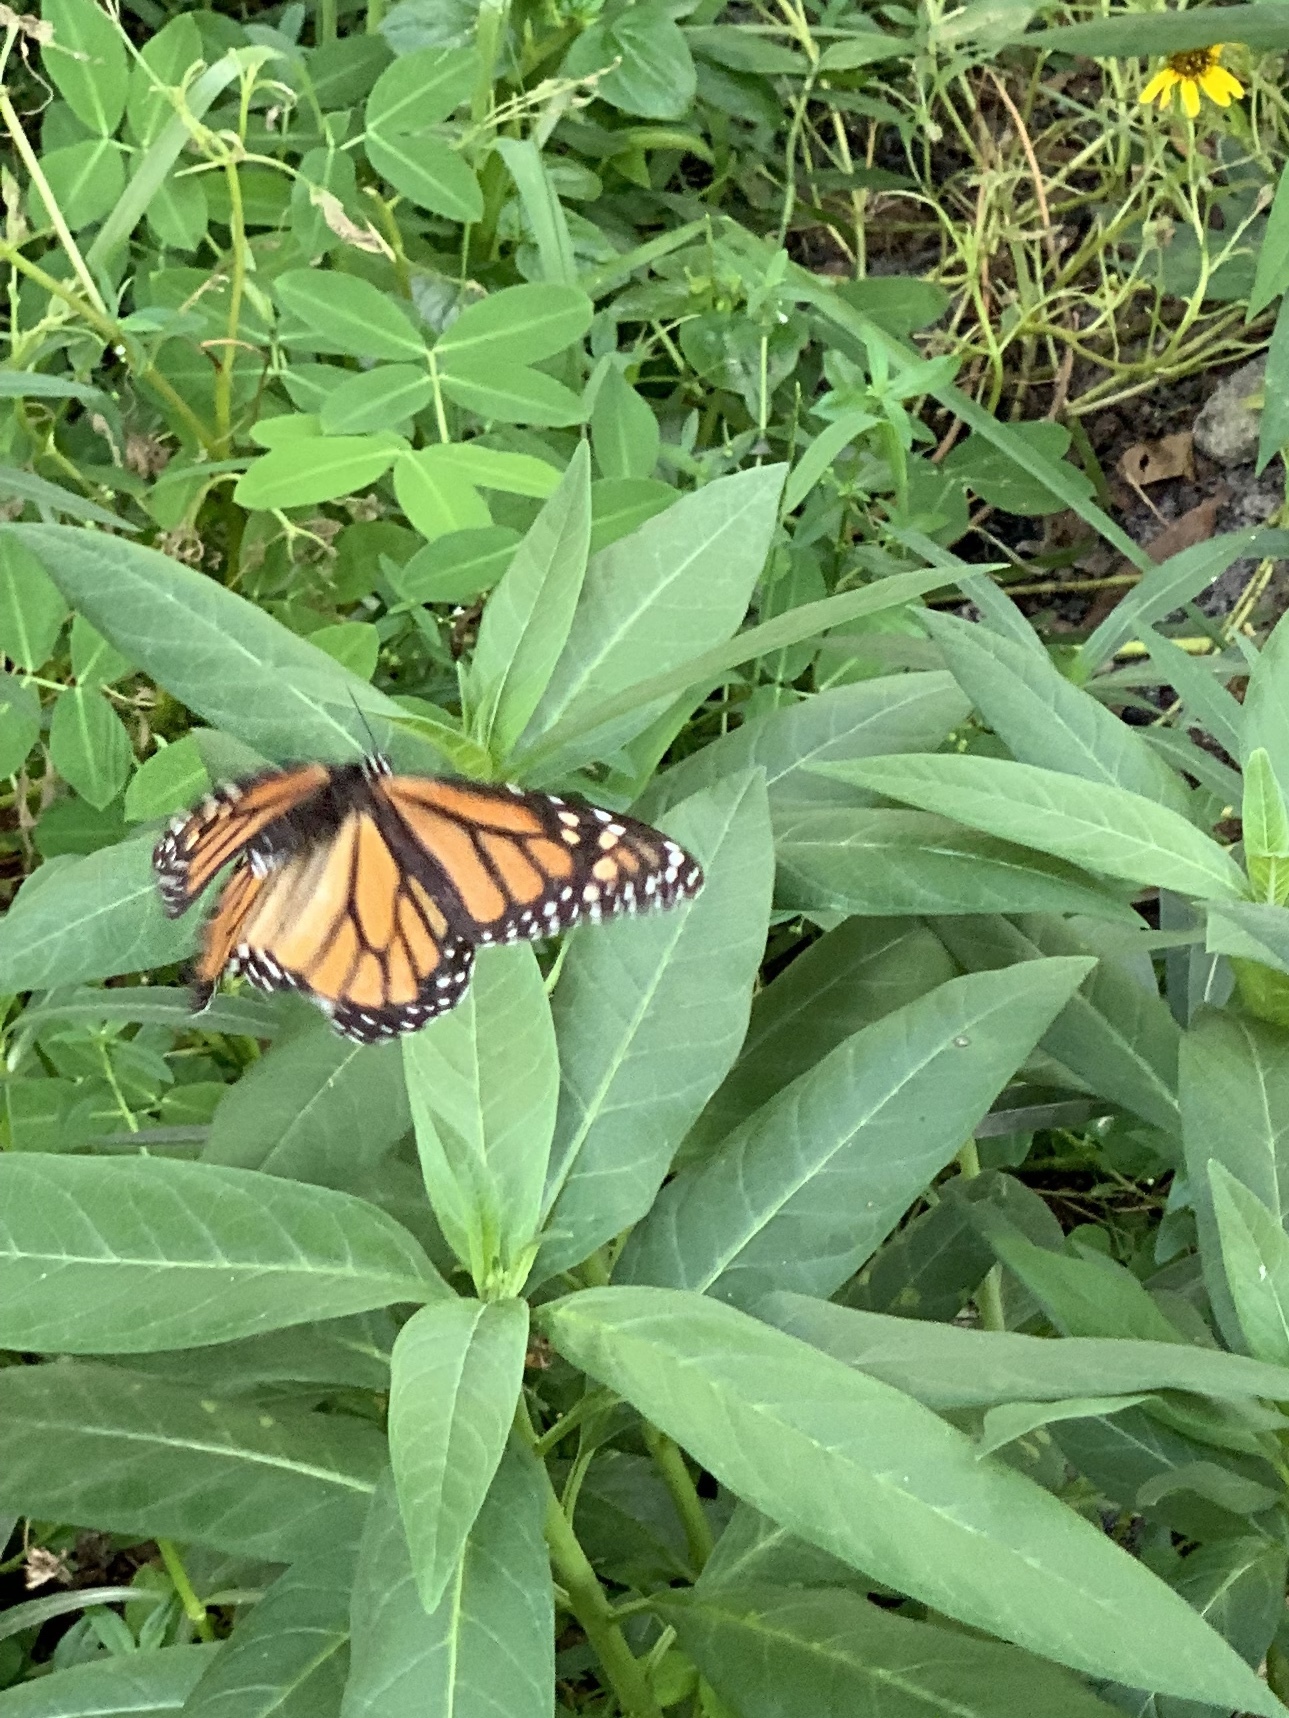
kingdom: Animalia
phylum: Arthropoda
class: Insecta
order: Lepidoptera
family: Nymphalidae
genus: Danaus
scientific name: Danaus plexippus
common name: Monarch
